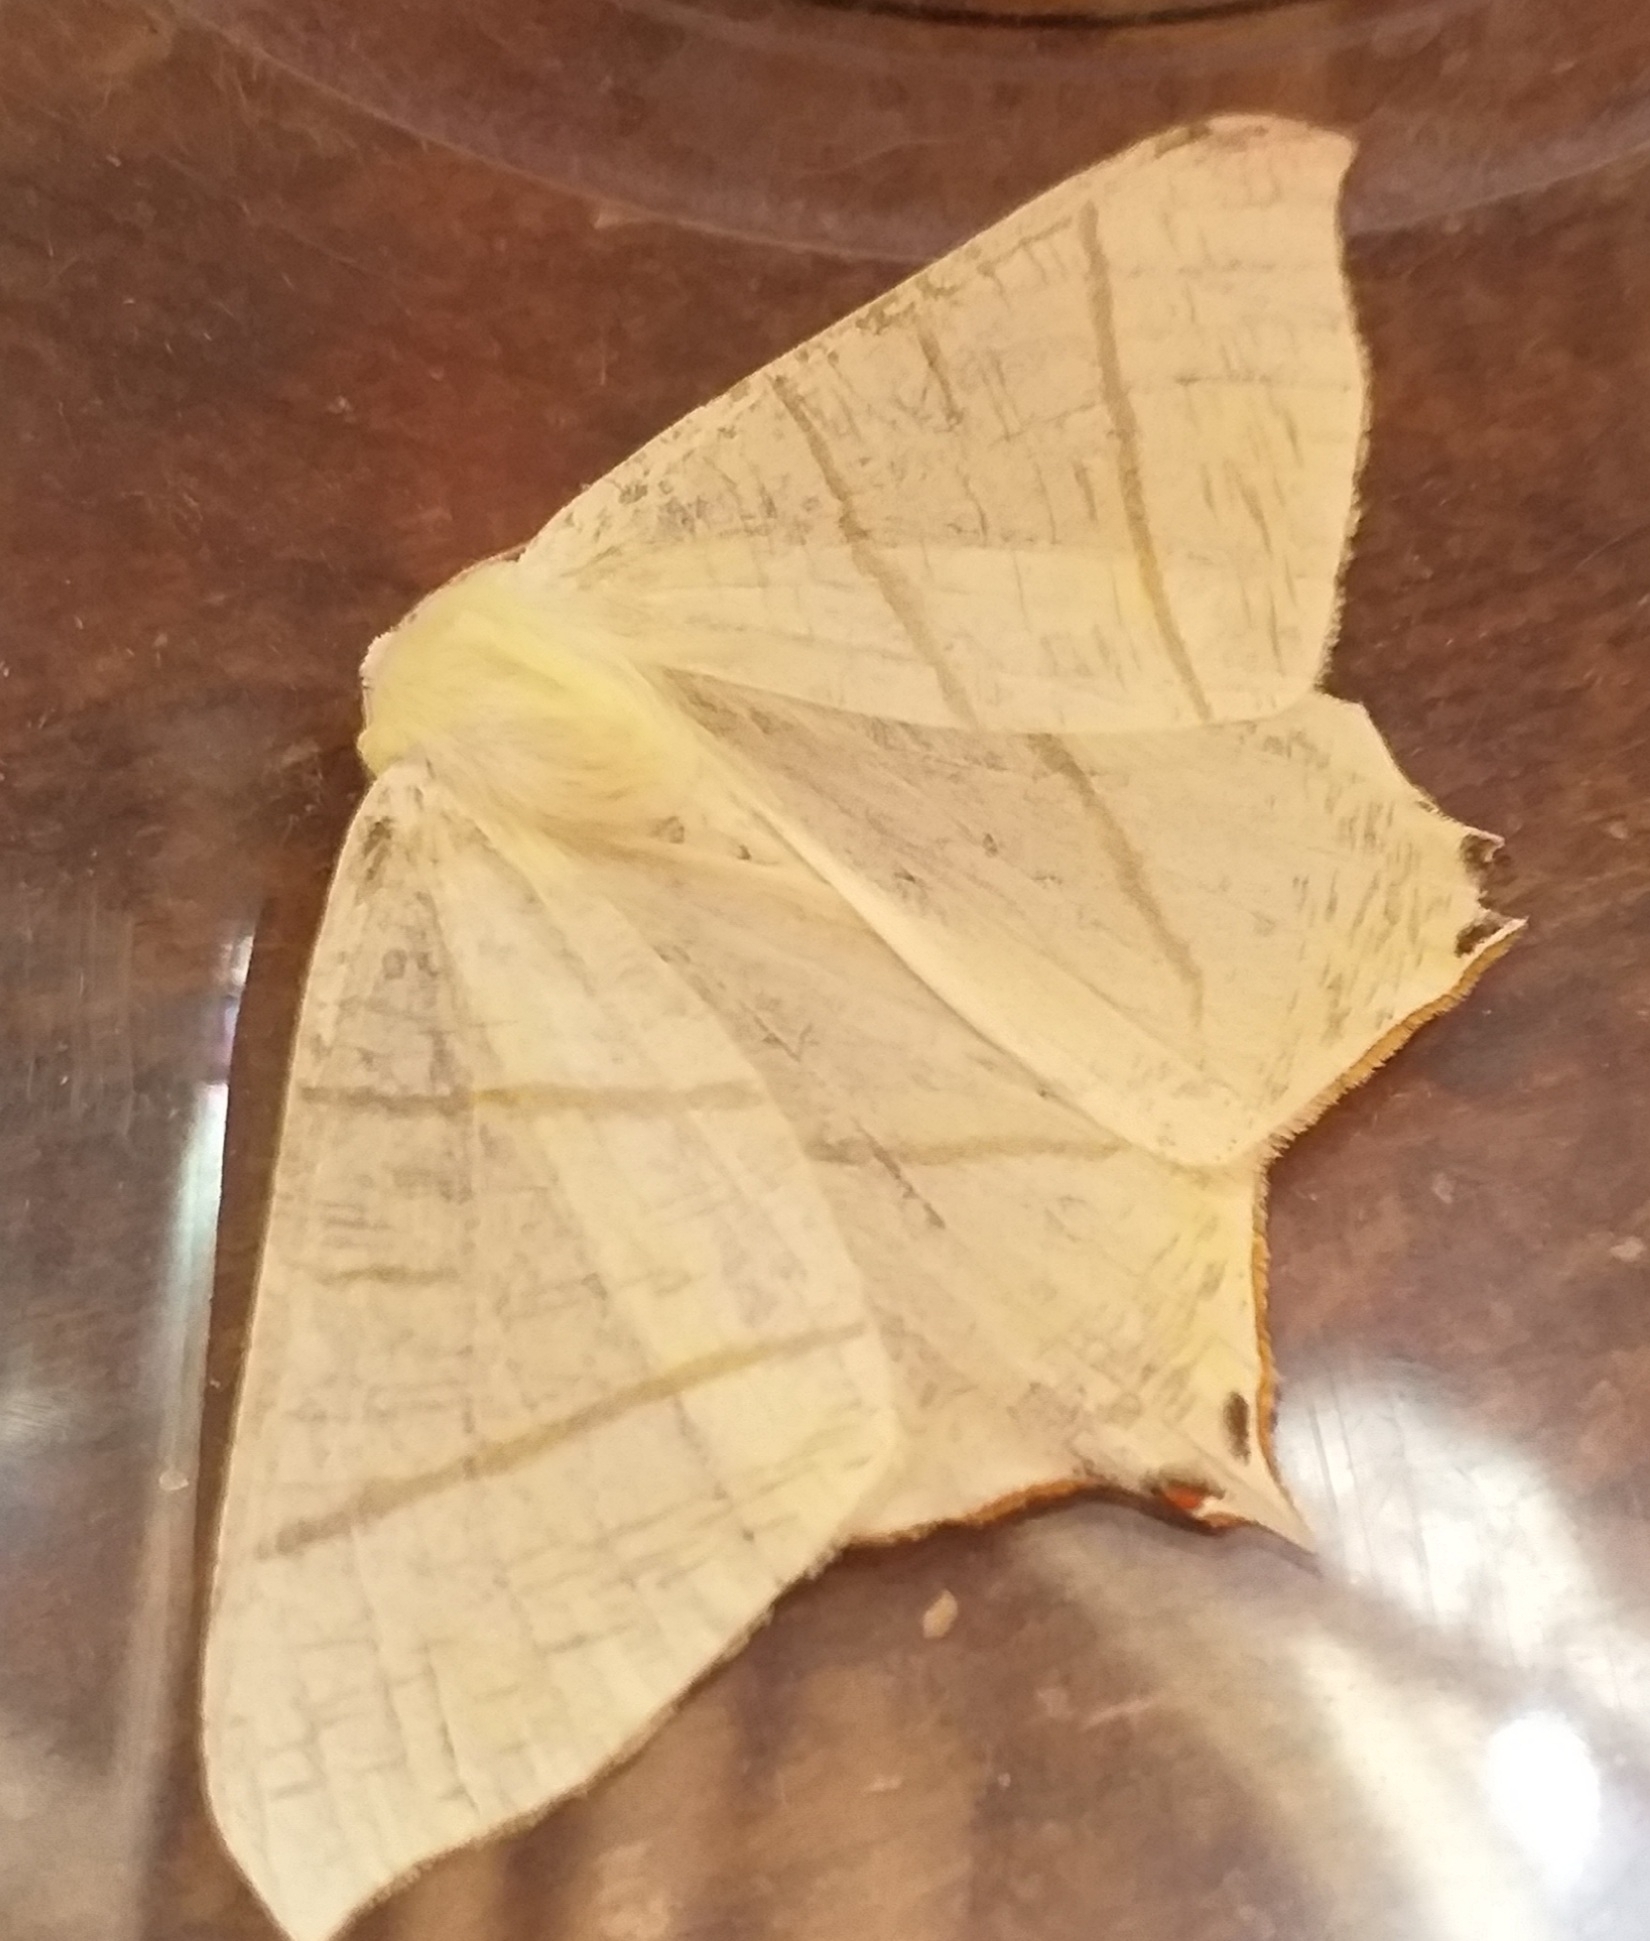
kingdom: Animalia
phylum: Arthropoda
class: Insecta
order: Lepidoptera
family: Geometridae
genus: Ourapteryx
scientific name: Ourapteryx sambucaria
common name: Swallow-tailed moth
